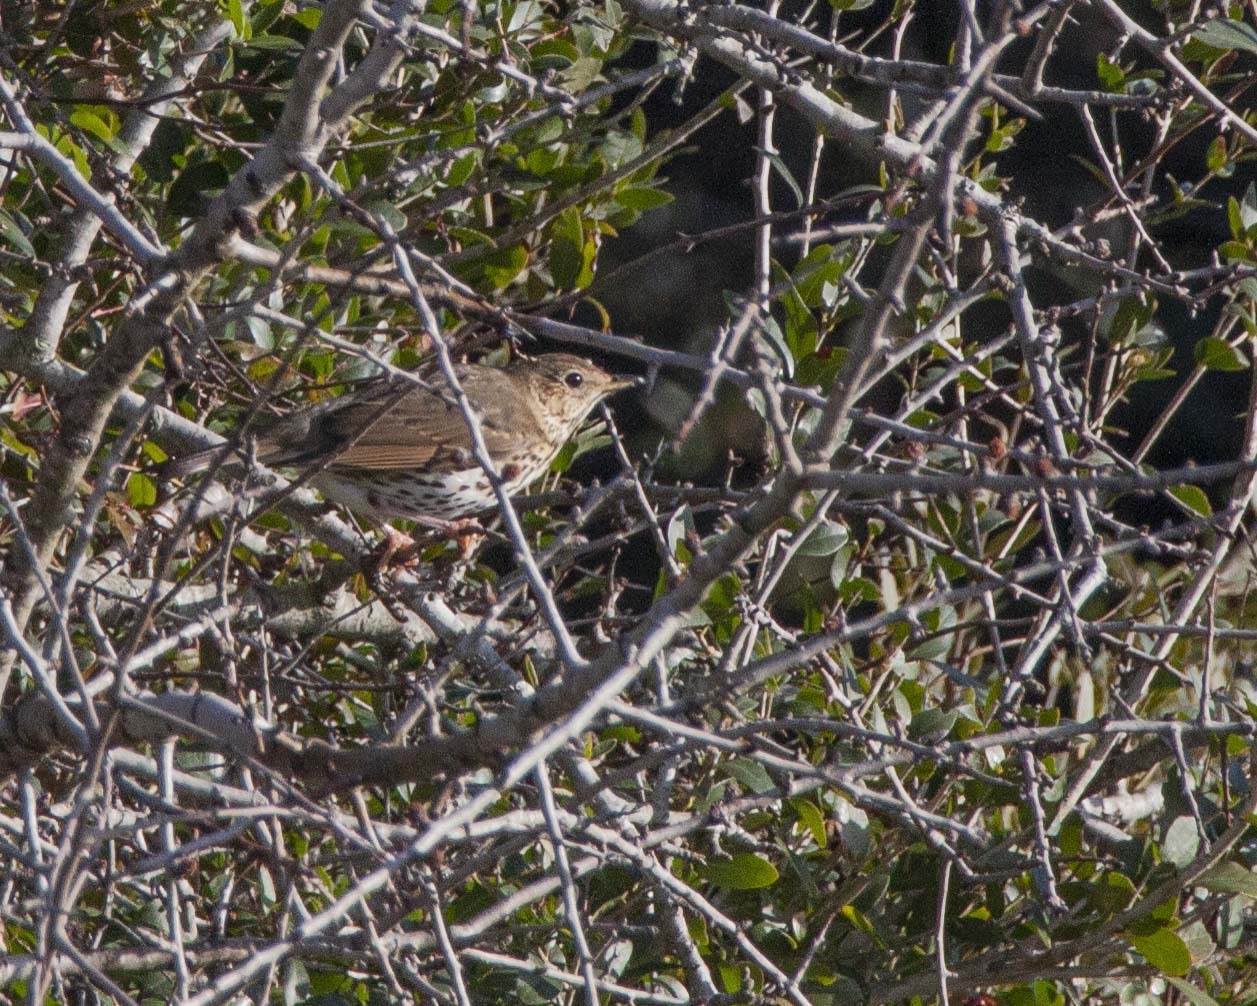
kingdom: Animalia
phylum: Chordata
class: Aves
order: Passeriformes
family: Turdidae
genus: Turdus
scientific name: Turdus philomelos
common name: Song thrush
